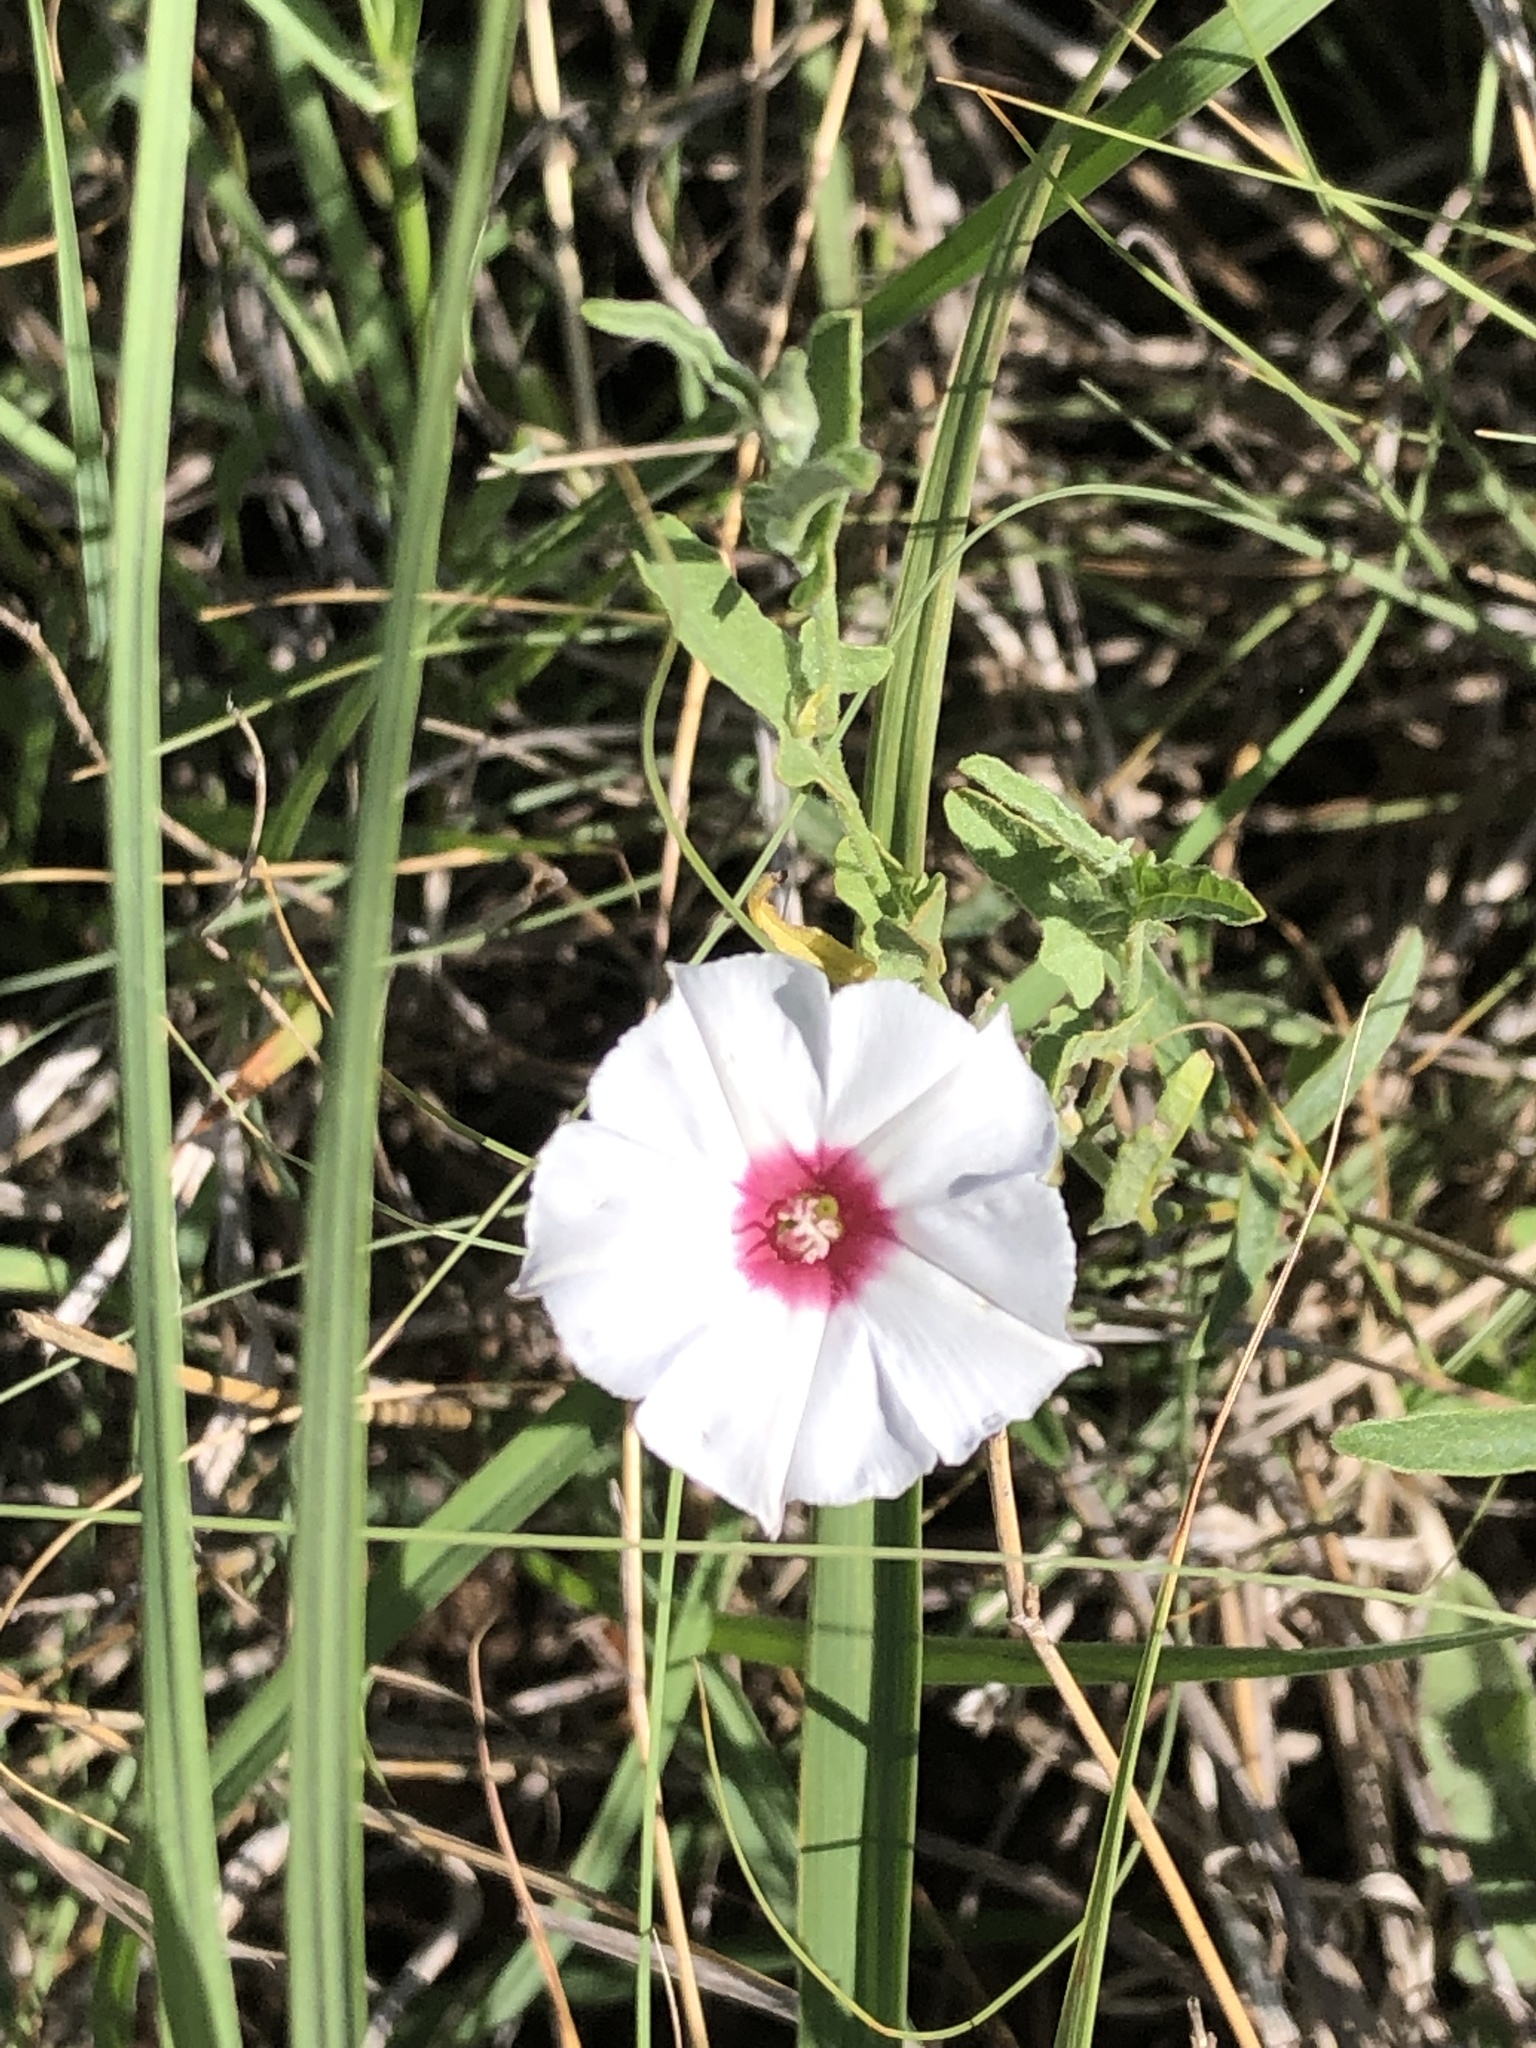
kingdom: Plantae
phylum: Tracheophyta
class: Magnoliopsida
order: Solanales
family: Convolvulaceae
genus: Convolvulus
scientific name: Convolvulus equitans
